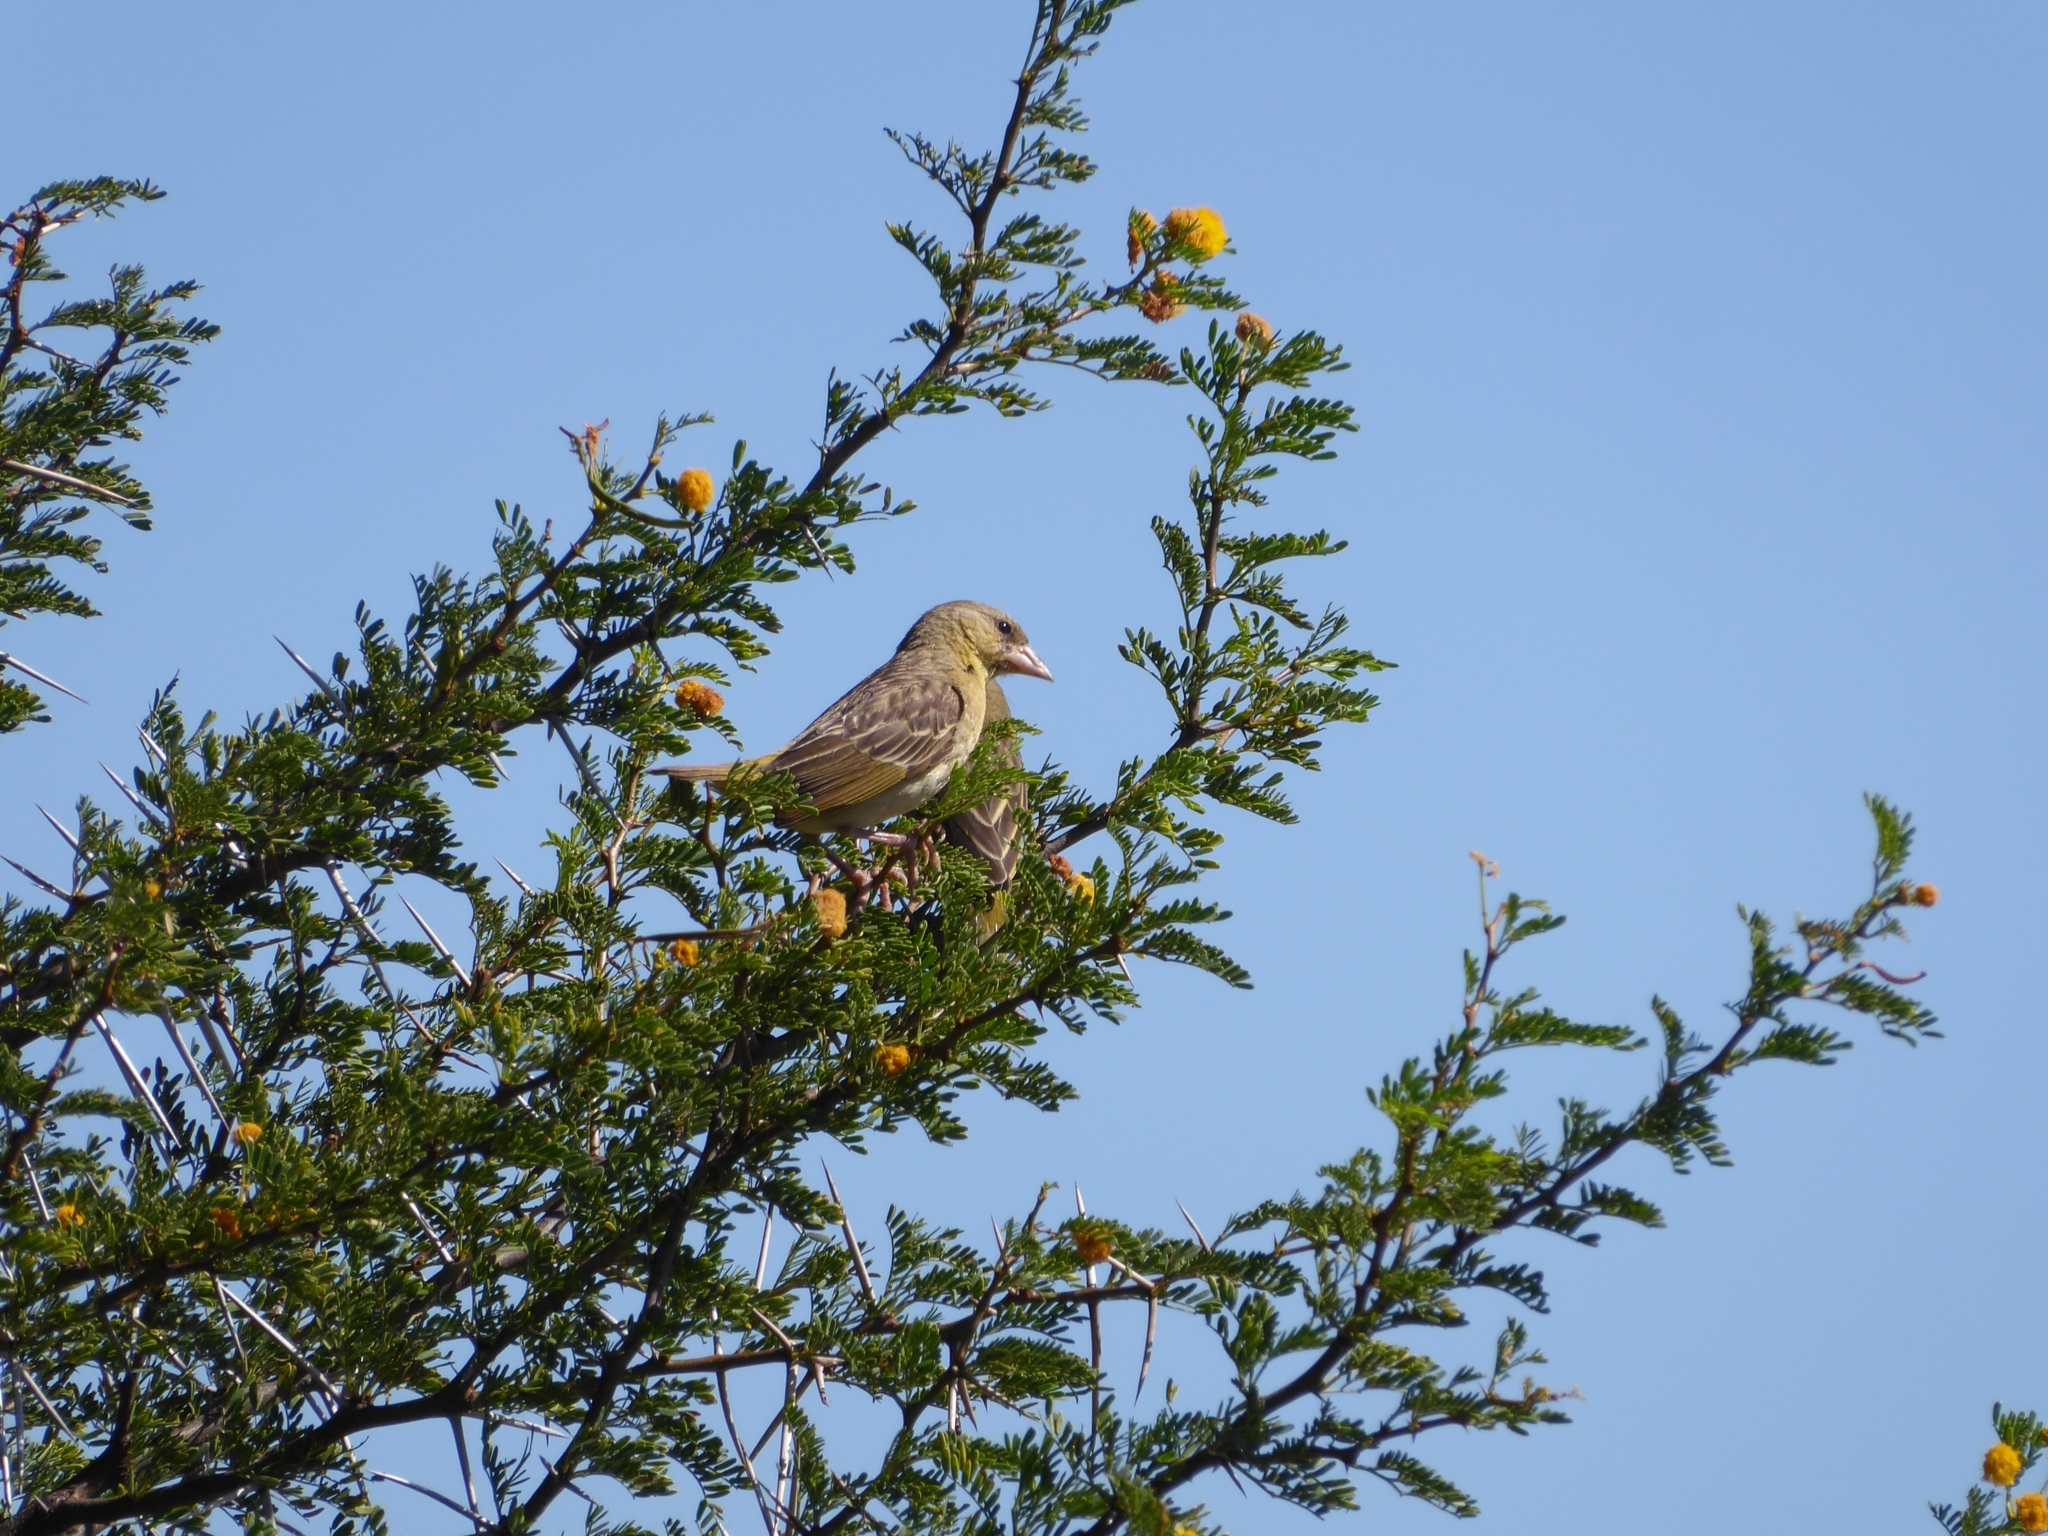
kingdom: Animalia
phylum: Chordata
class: Aves
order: Passeriformes
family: Ploceidae
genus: Ploceus
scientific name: Ploceus velatus
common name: Southern masked weaver
